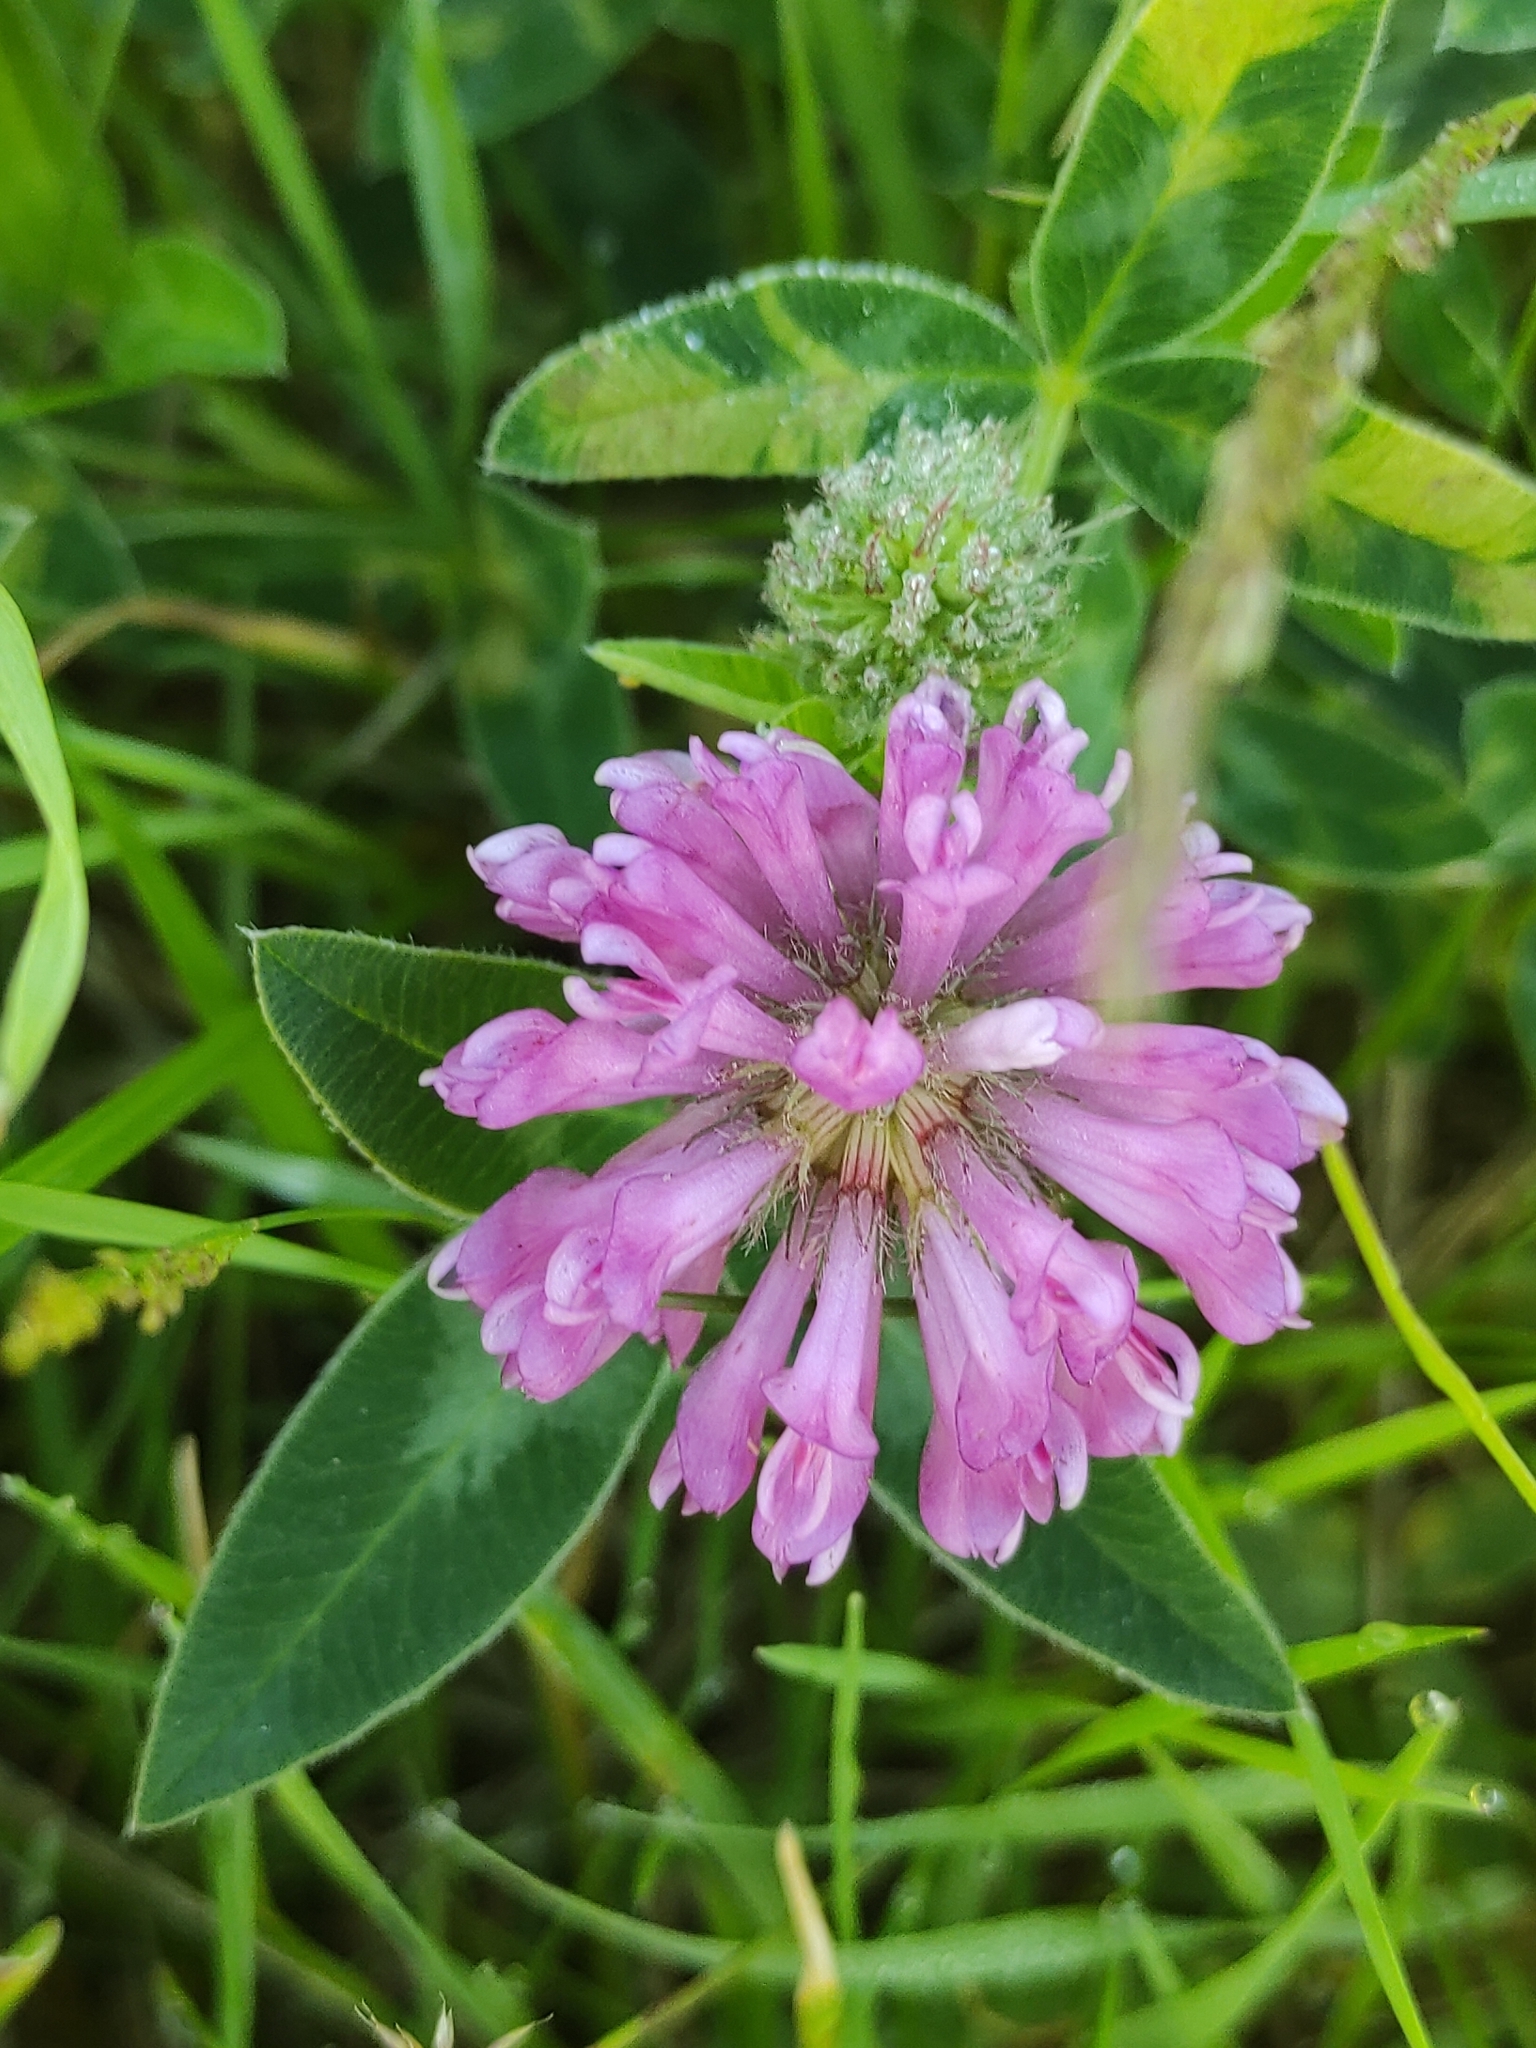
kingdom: Plantae
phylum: Tracheophyta
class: Magnoliopsida
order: Fabales
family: Fabaceae
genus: Trifolium
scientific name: Trifolium pratense
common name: Red clover
